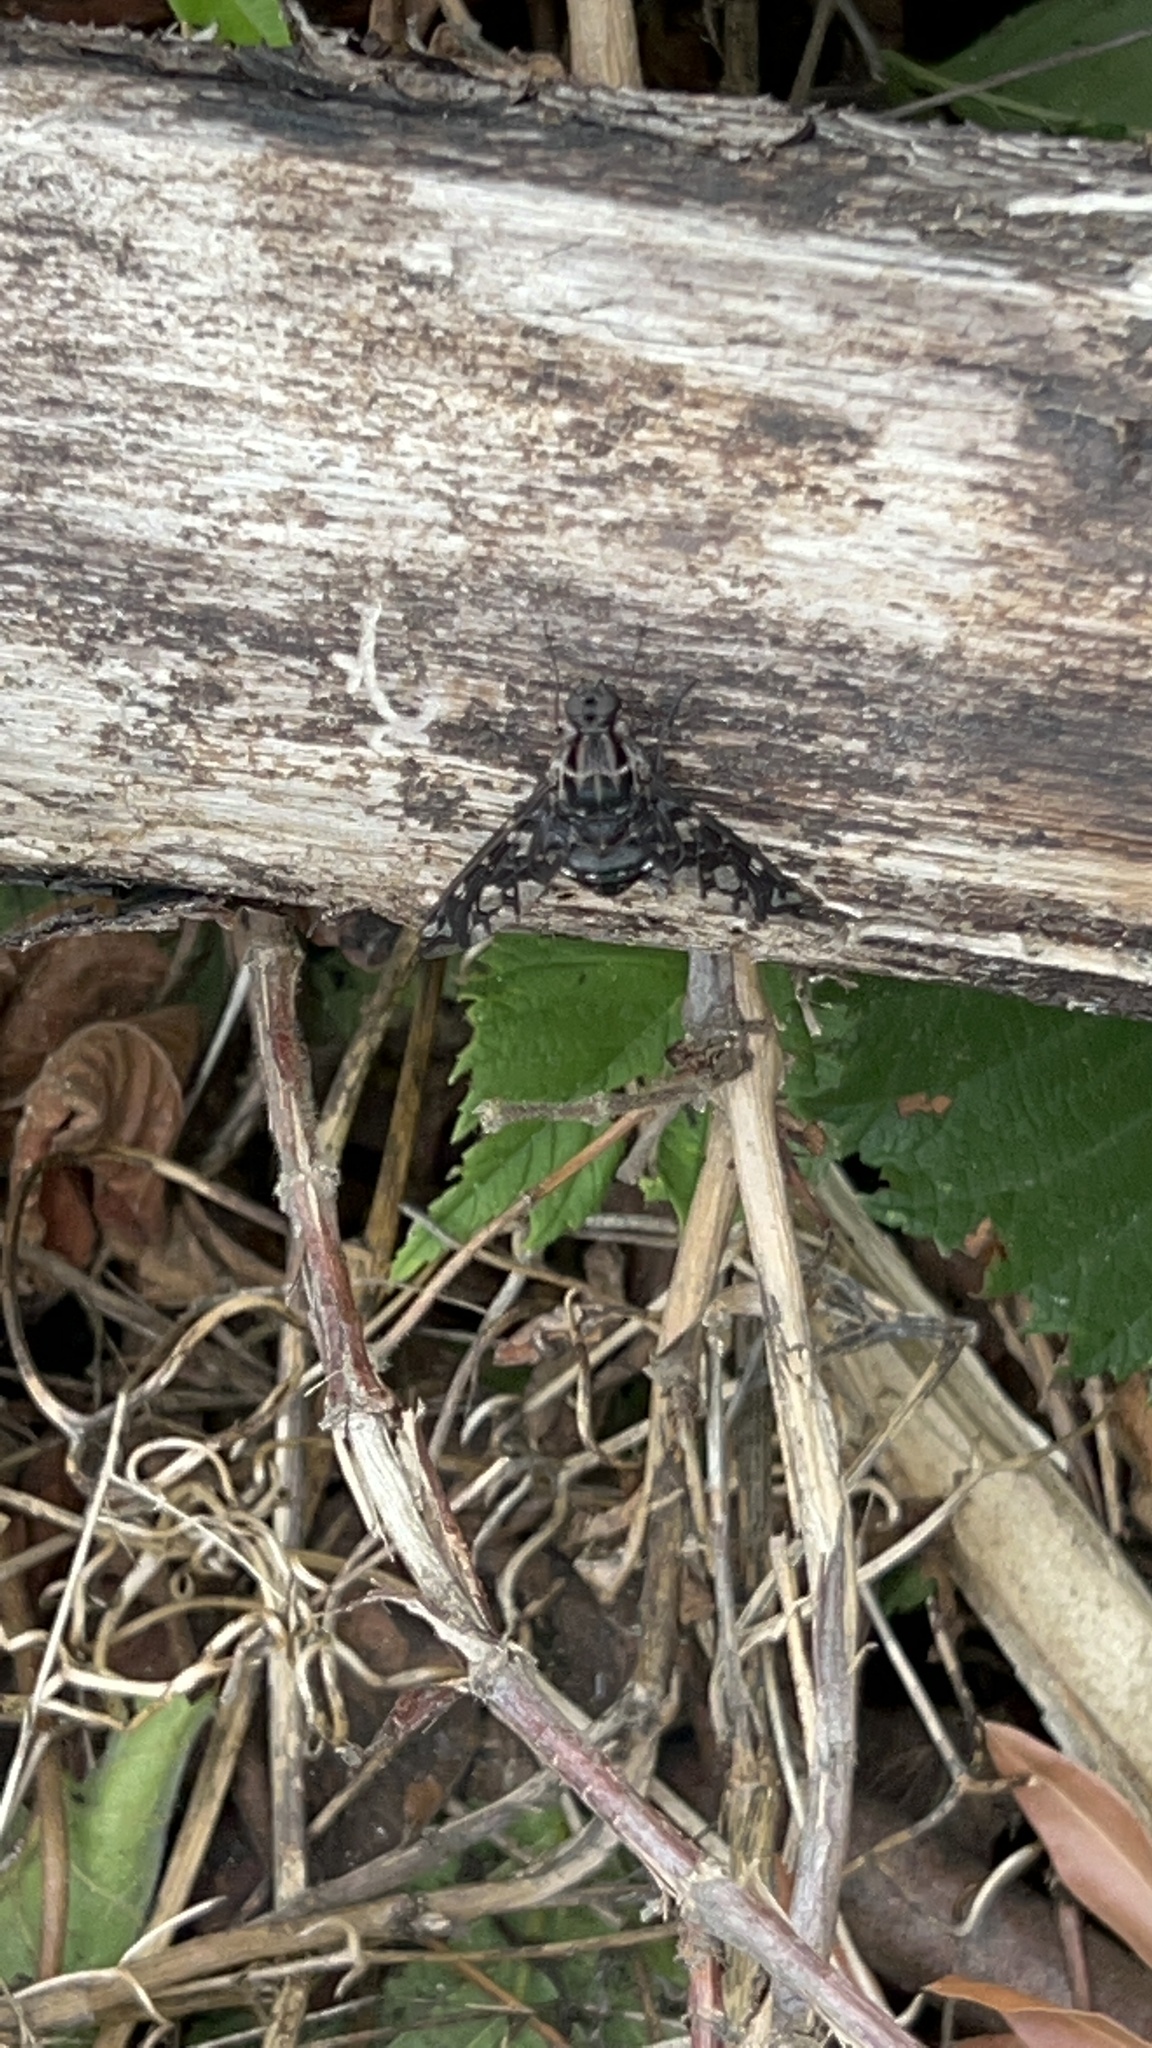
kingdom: Animalia
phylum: Arthropoda
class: Insecta
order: Diptera
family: Bombyliidae
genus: Xenox
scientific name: Xenox tigrinus
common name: Tiger bee fly
